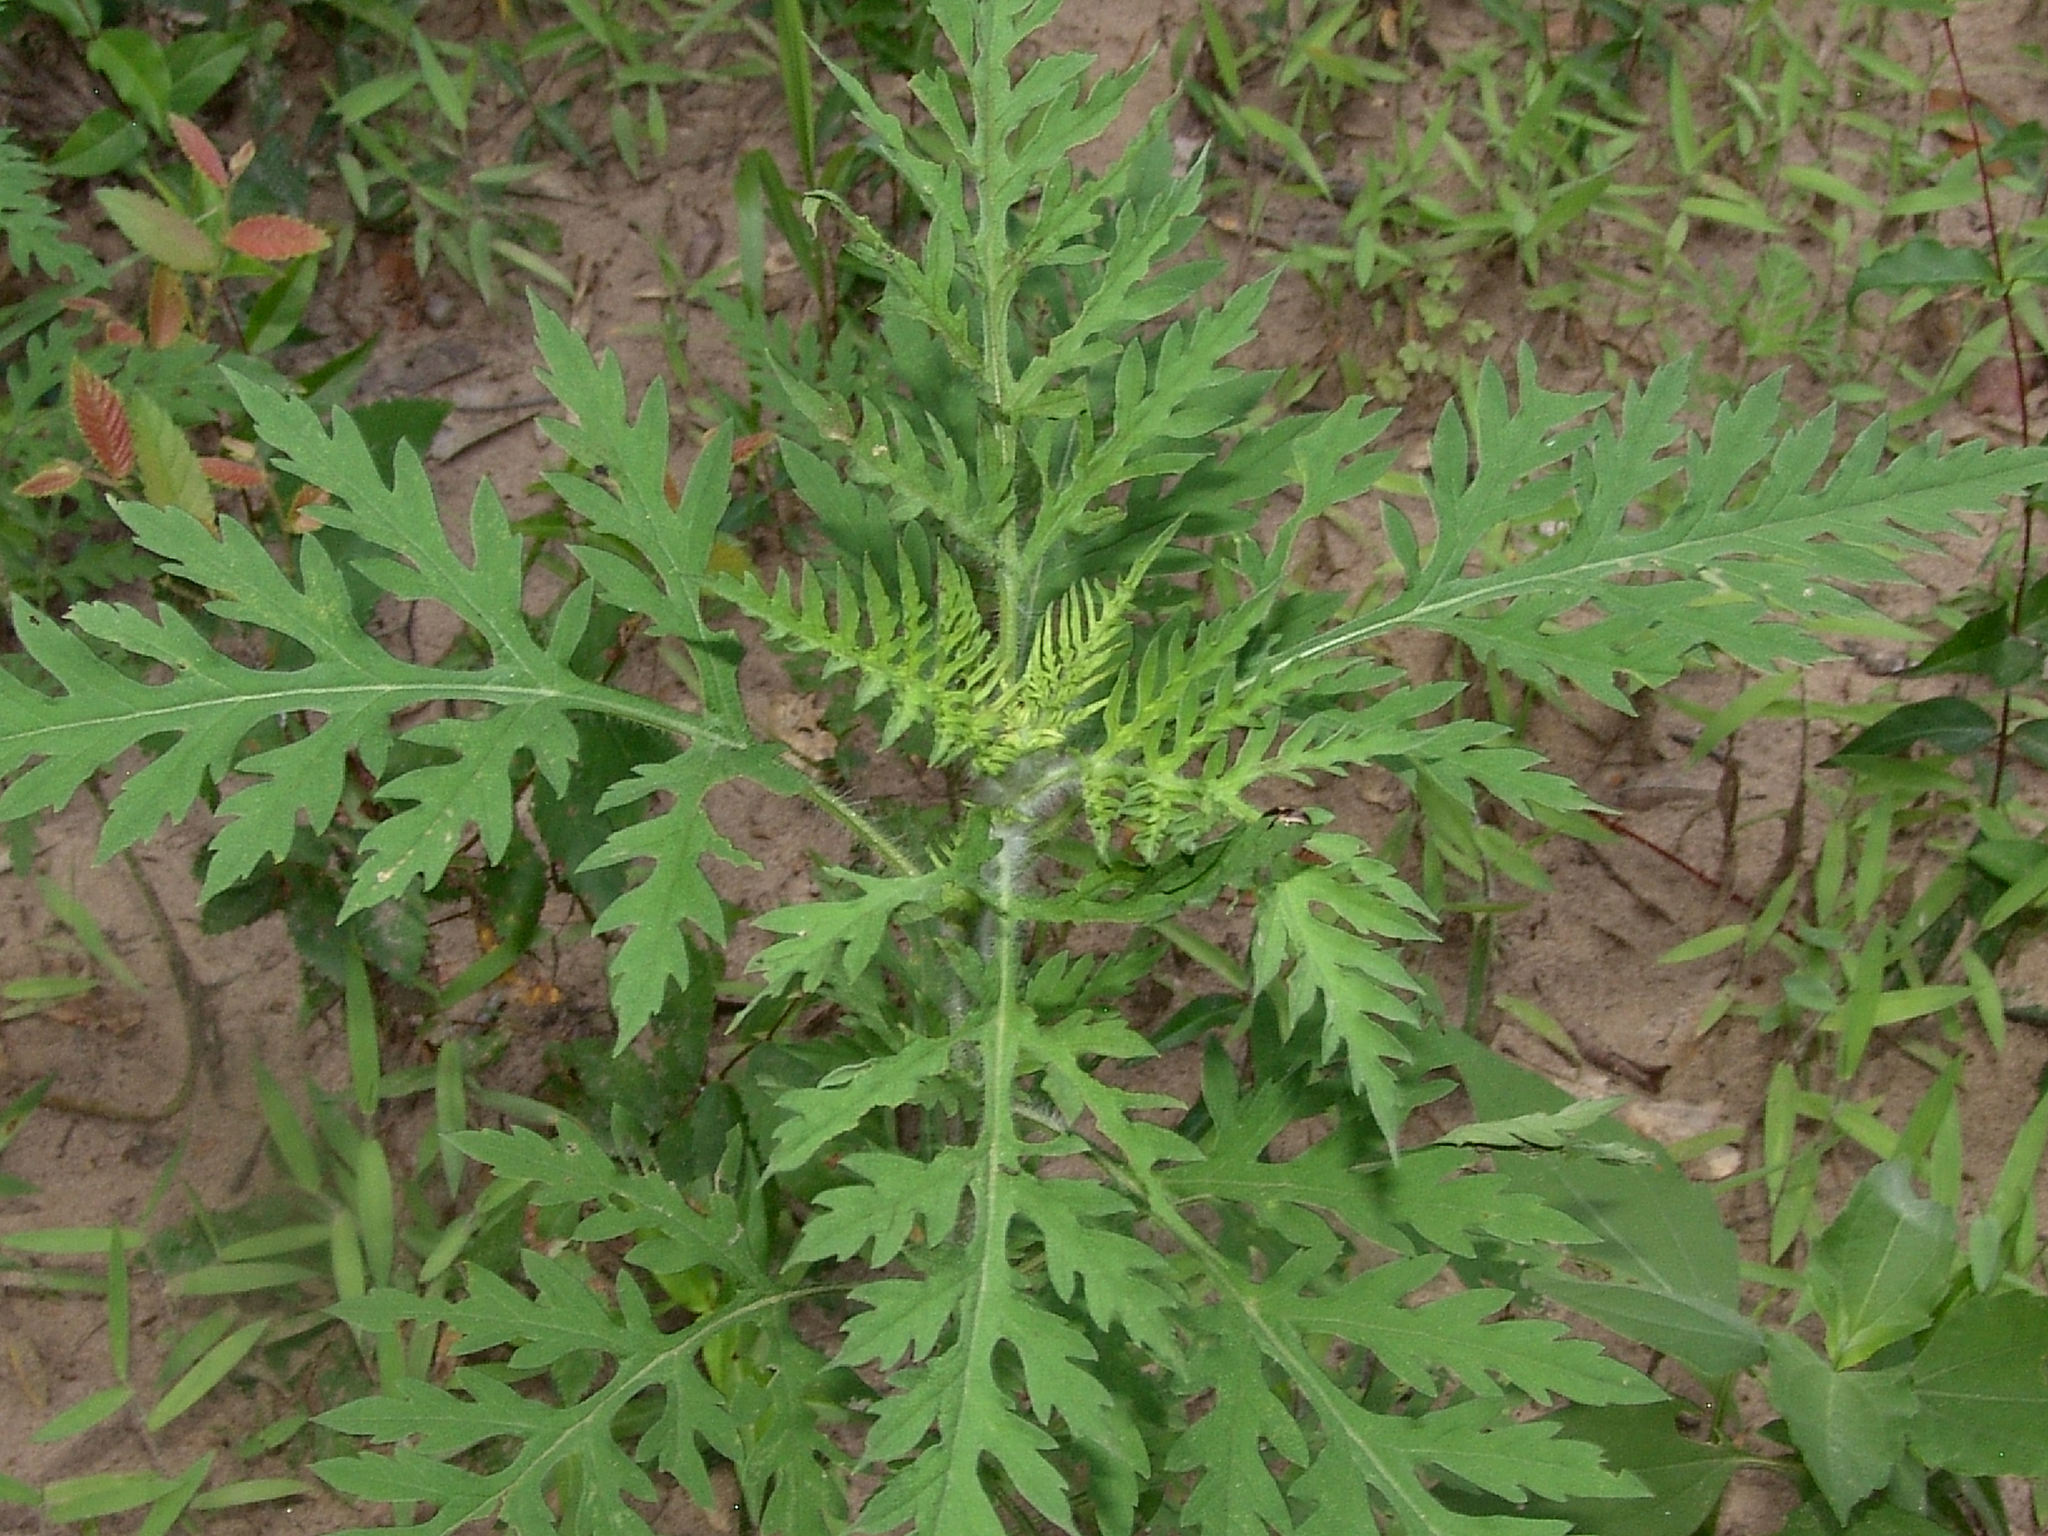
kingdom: Plantae
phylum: Tracheophyta
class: Magnoliopsida
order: Asterales
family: Asteraceae
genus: Ambrosia
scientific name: Ambrosia artemisiifolia
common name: Annual ragweed
